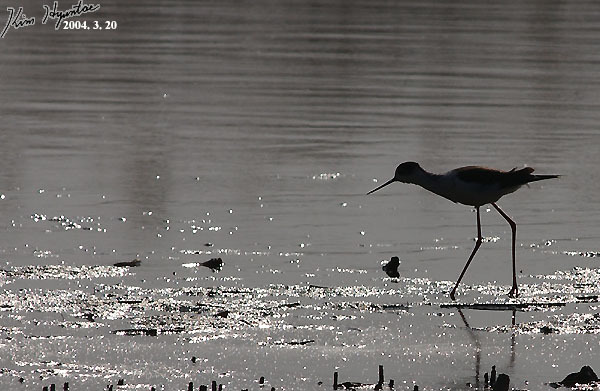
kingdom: Animalia
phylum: Chordata
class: Aves
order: Charadriiformes
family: Recurvirostridae
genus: Himantopus
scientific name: Himantopus himantopus
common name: Black-winged stilt
